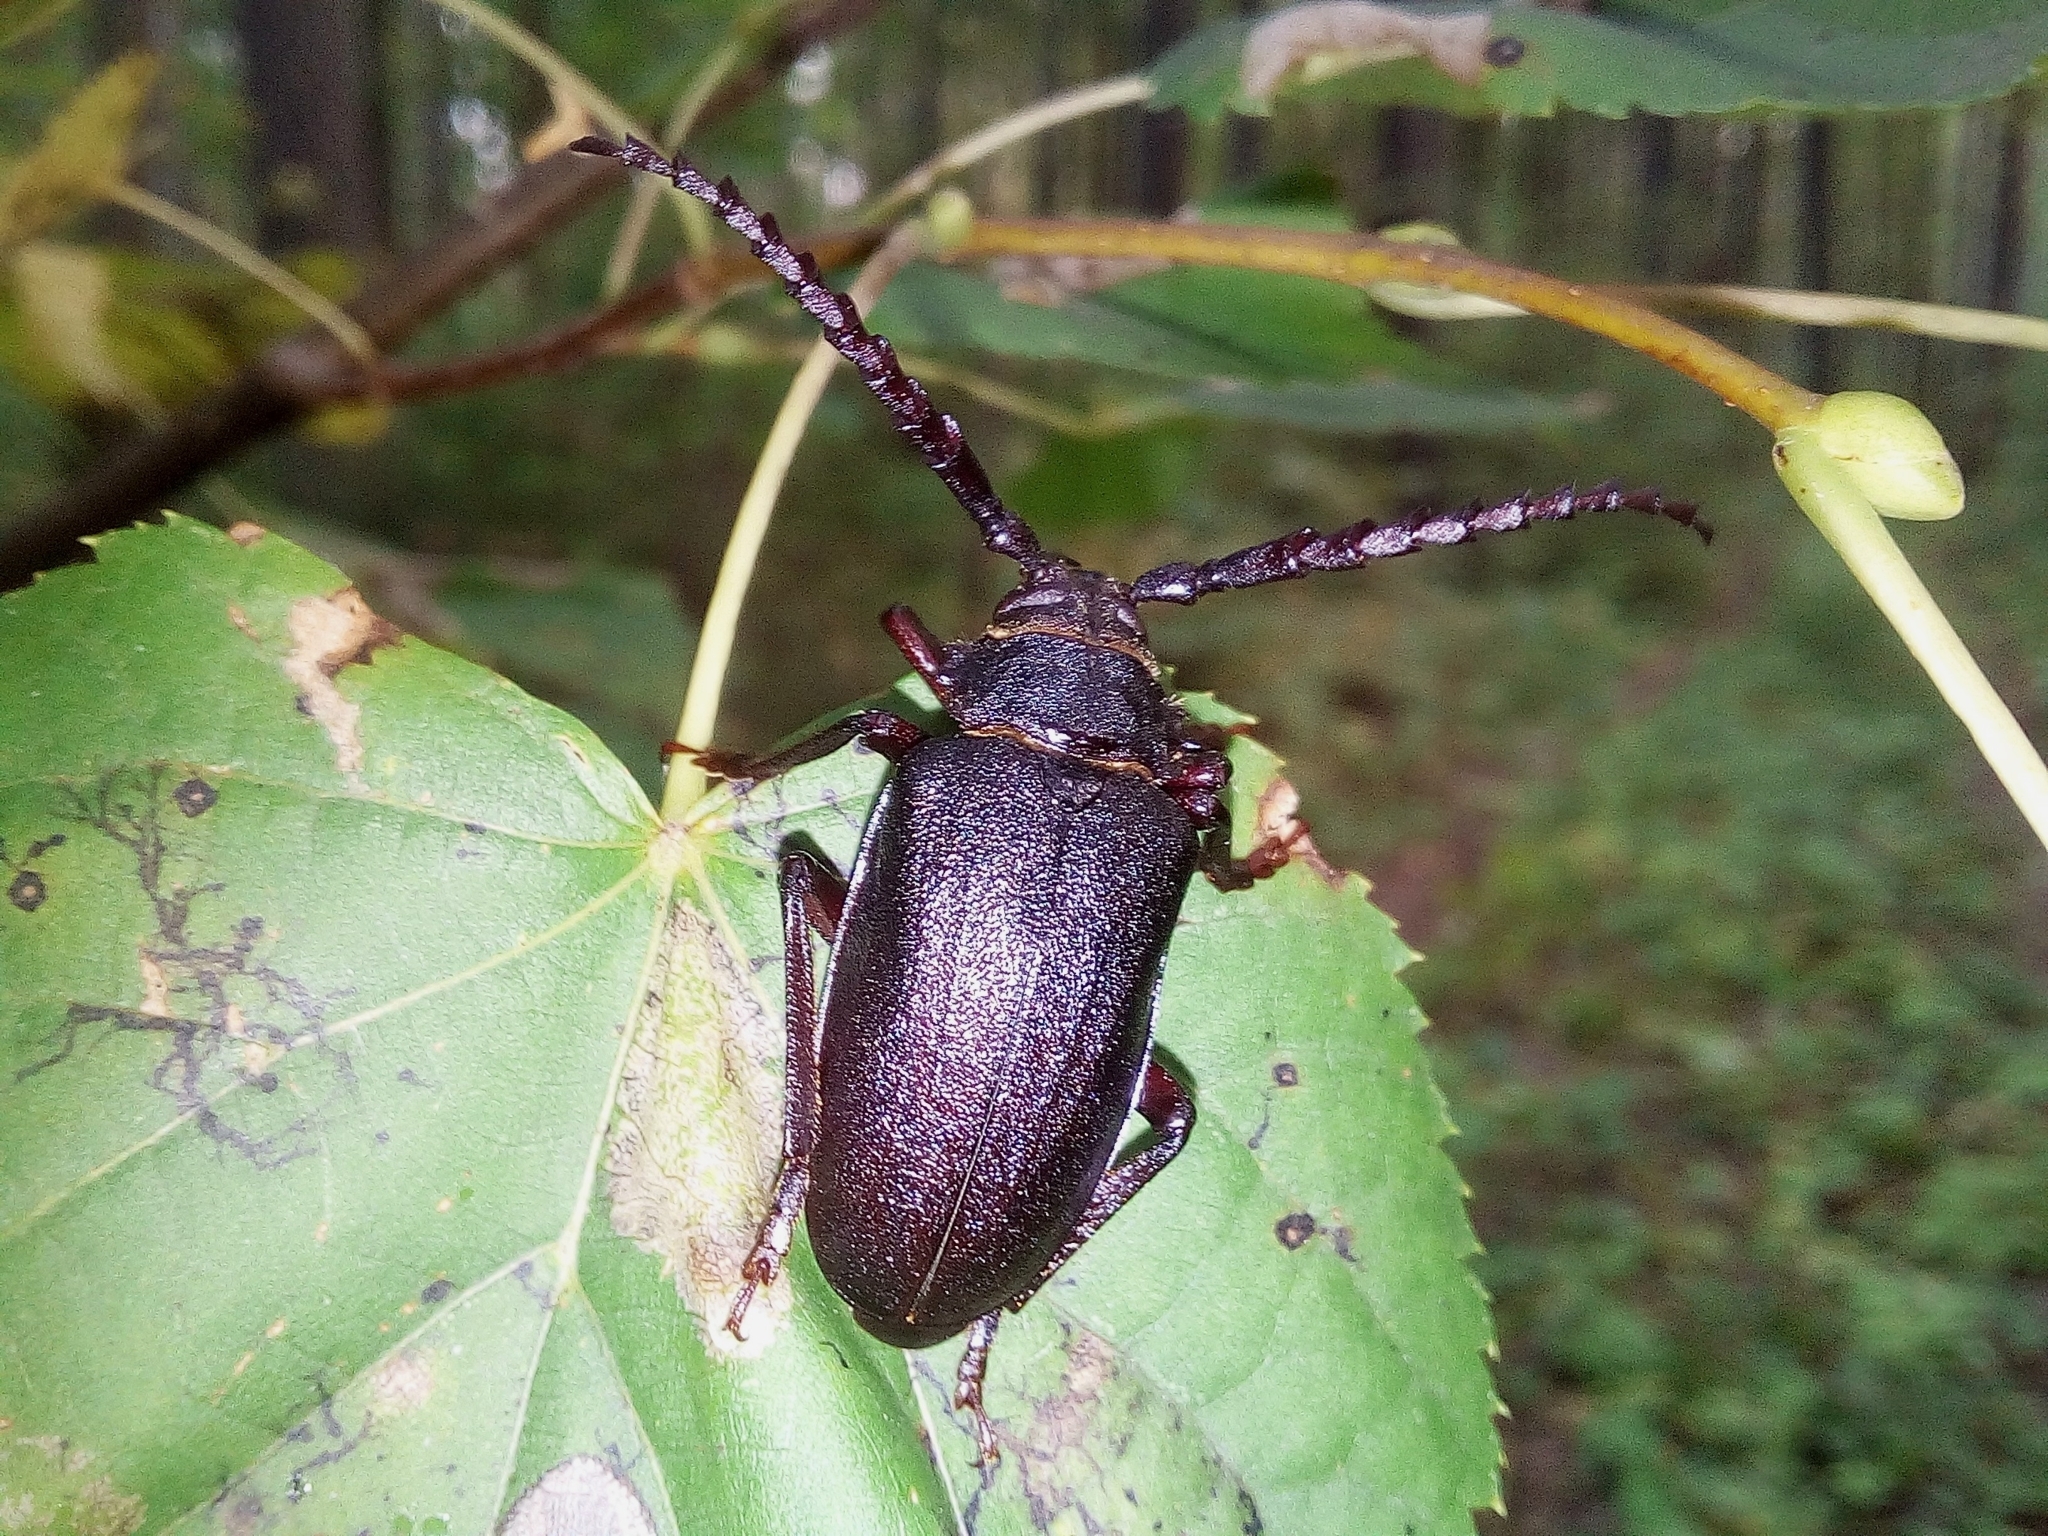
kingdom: Animalia
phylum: Arthropoda
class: Insecta
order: Coleoptera
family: Cerambycidae
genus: Prionus
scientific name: Prionus coriarius
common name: Tanner beetle
